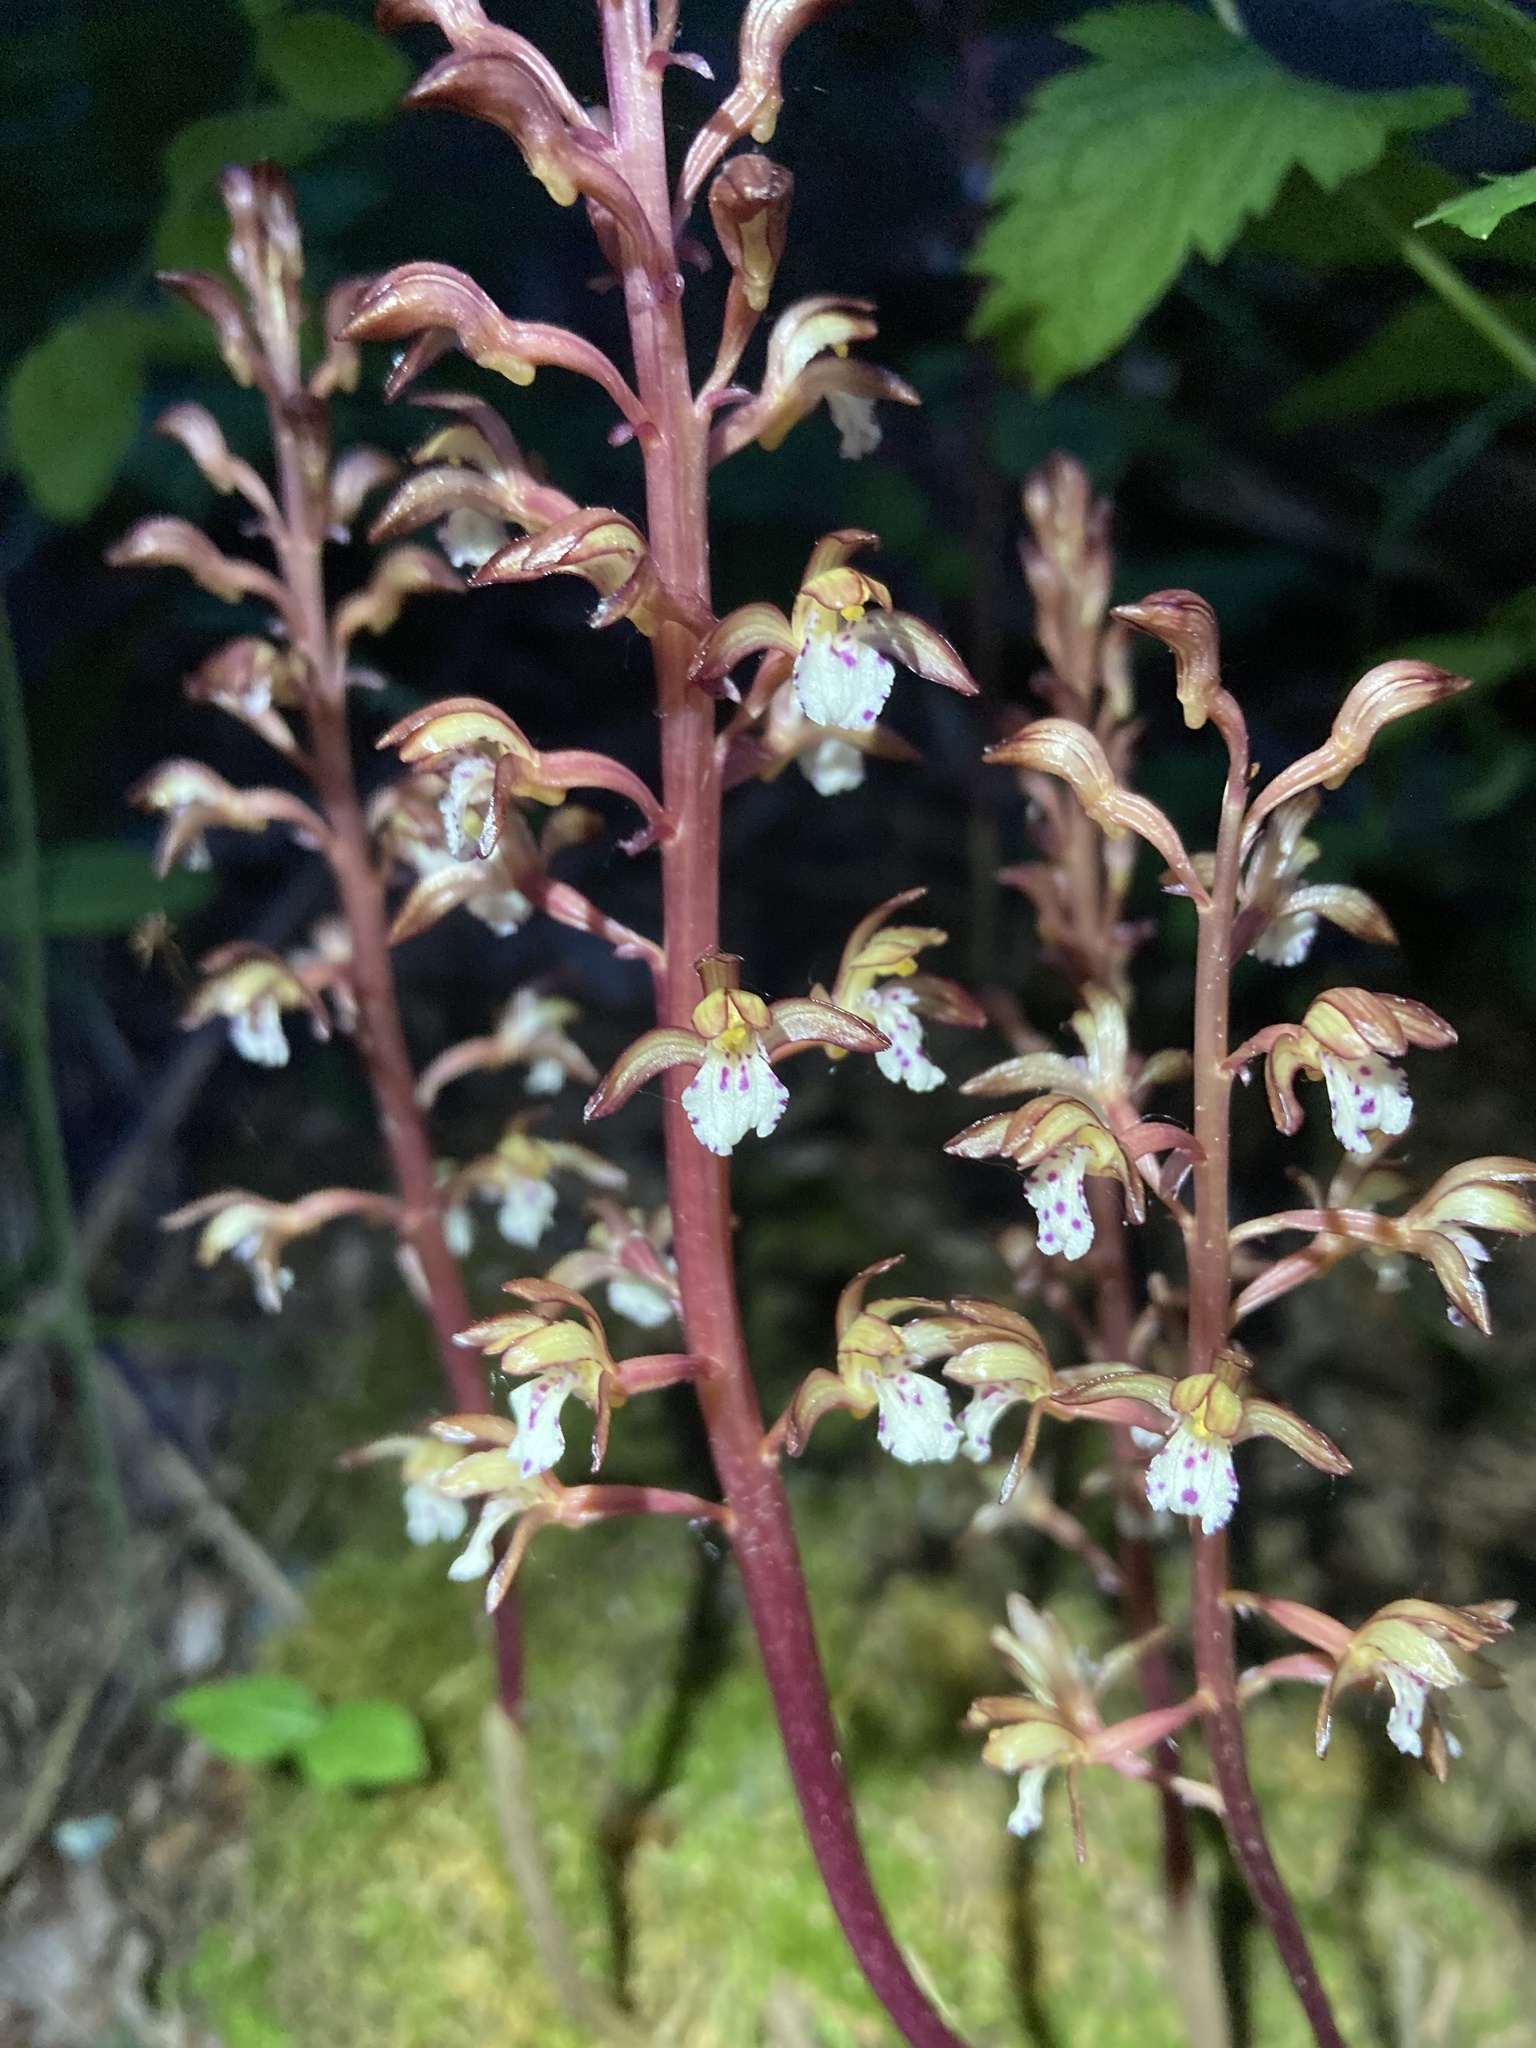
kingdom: Plantae
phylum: Tracheophyta
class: Liliopsida
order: Asparagales
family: Orchidaceae
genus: Corallorhiza
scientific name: Corallorhiza maculata
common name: Spotted coralroot
